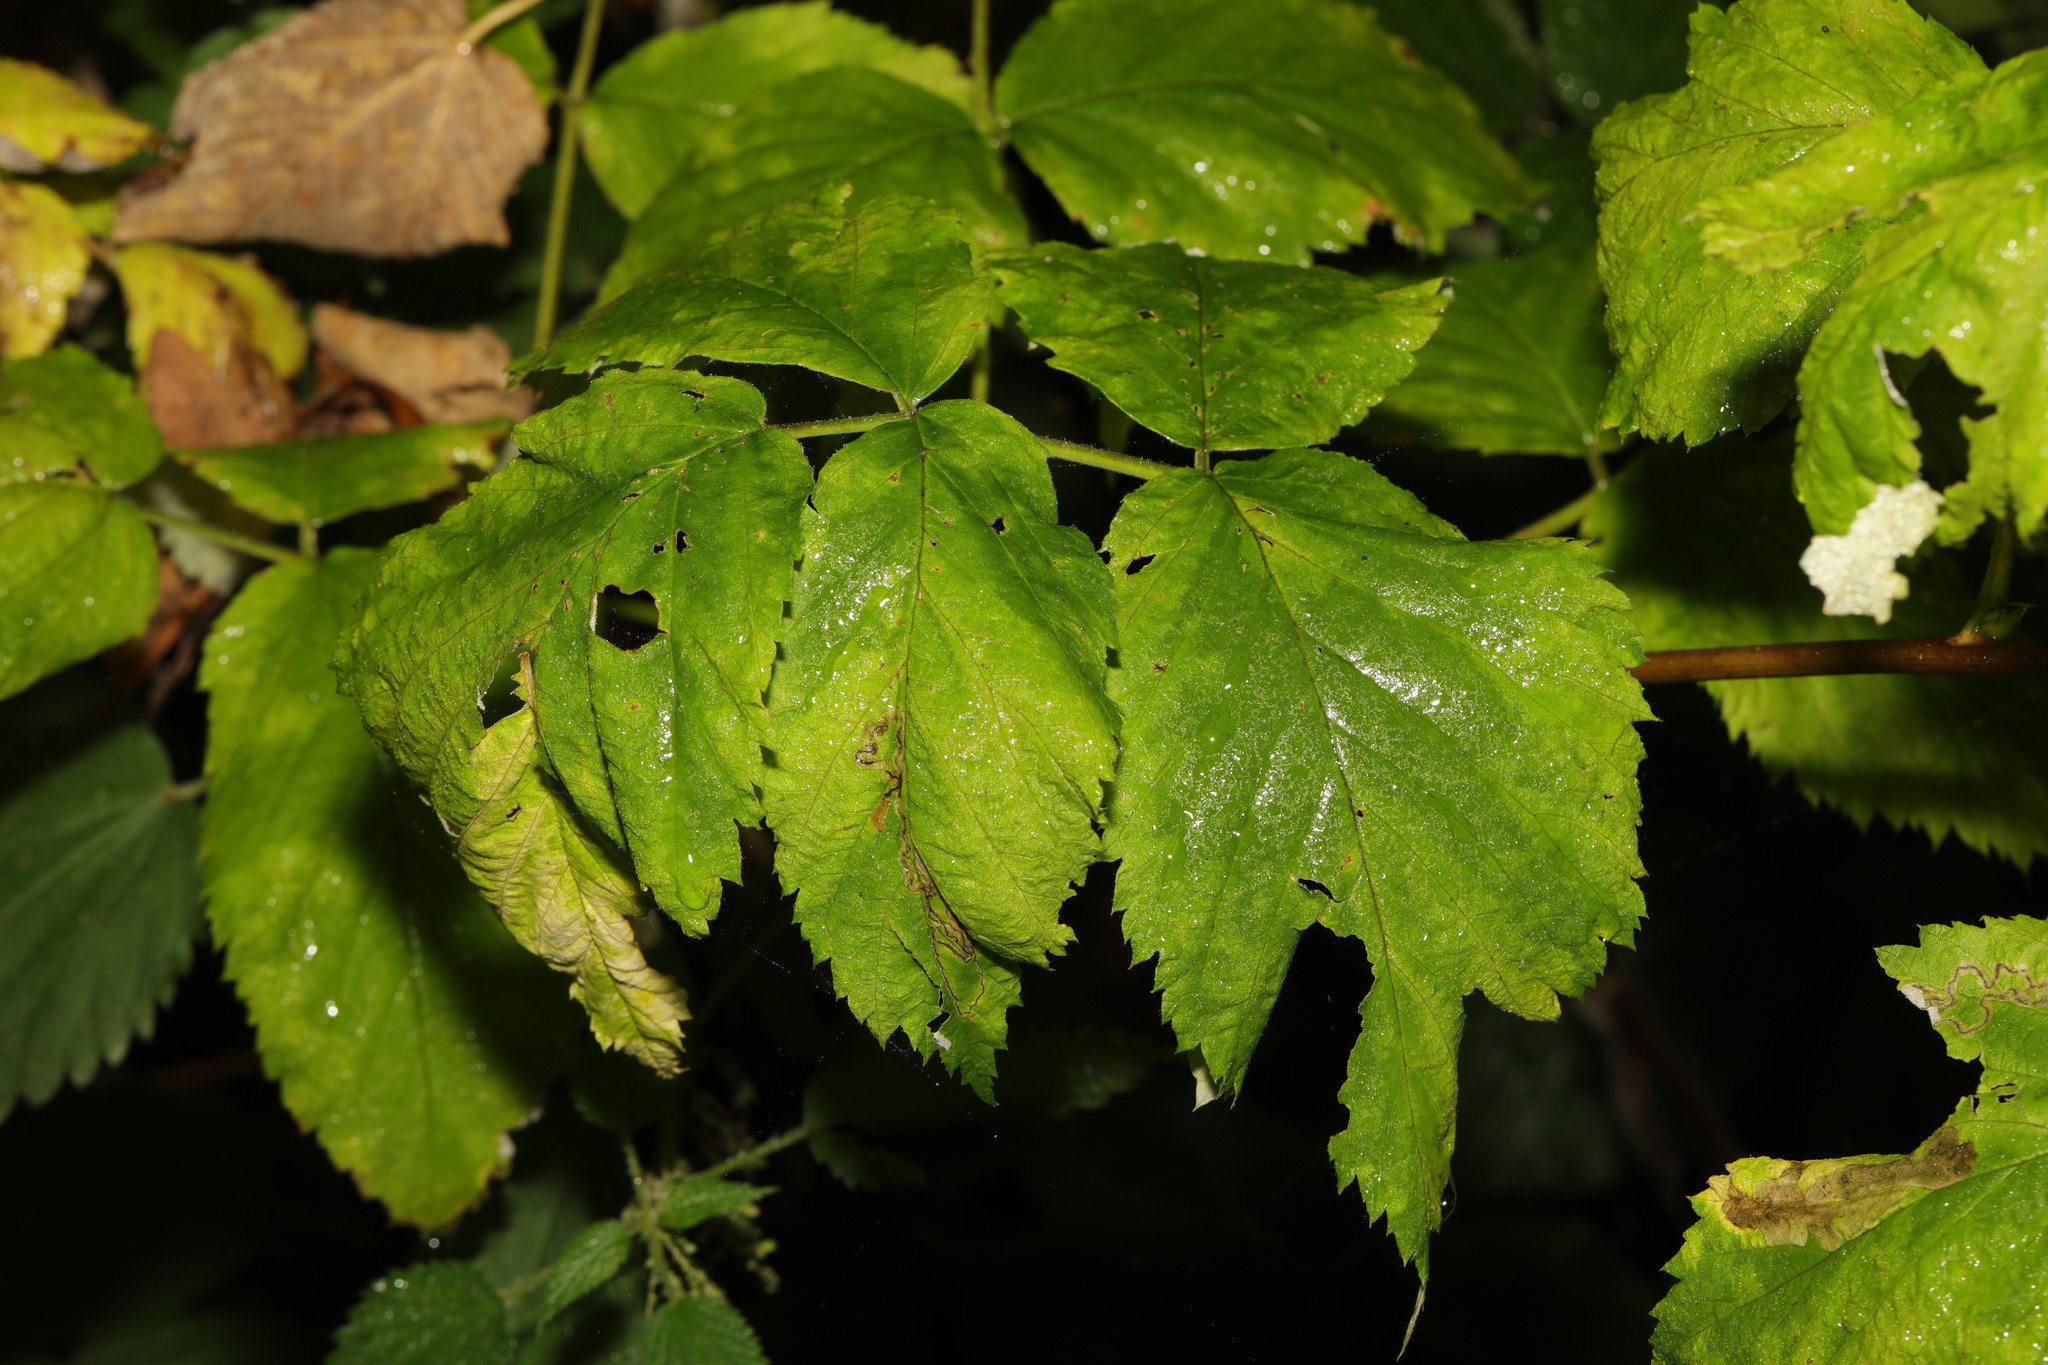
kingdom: Plantae
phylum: Tracheophyta
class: Magnoliopsida
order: Rosales
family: Rosaceae
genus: Rubus
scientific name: Rubus idaeus
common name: Raspberry
